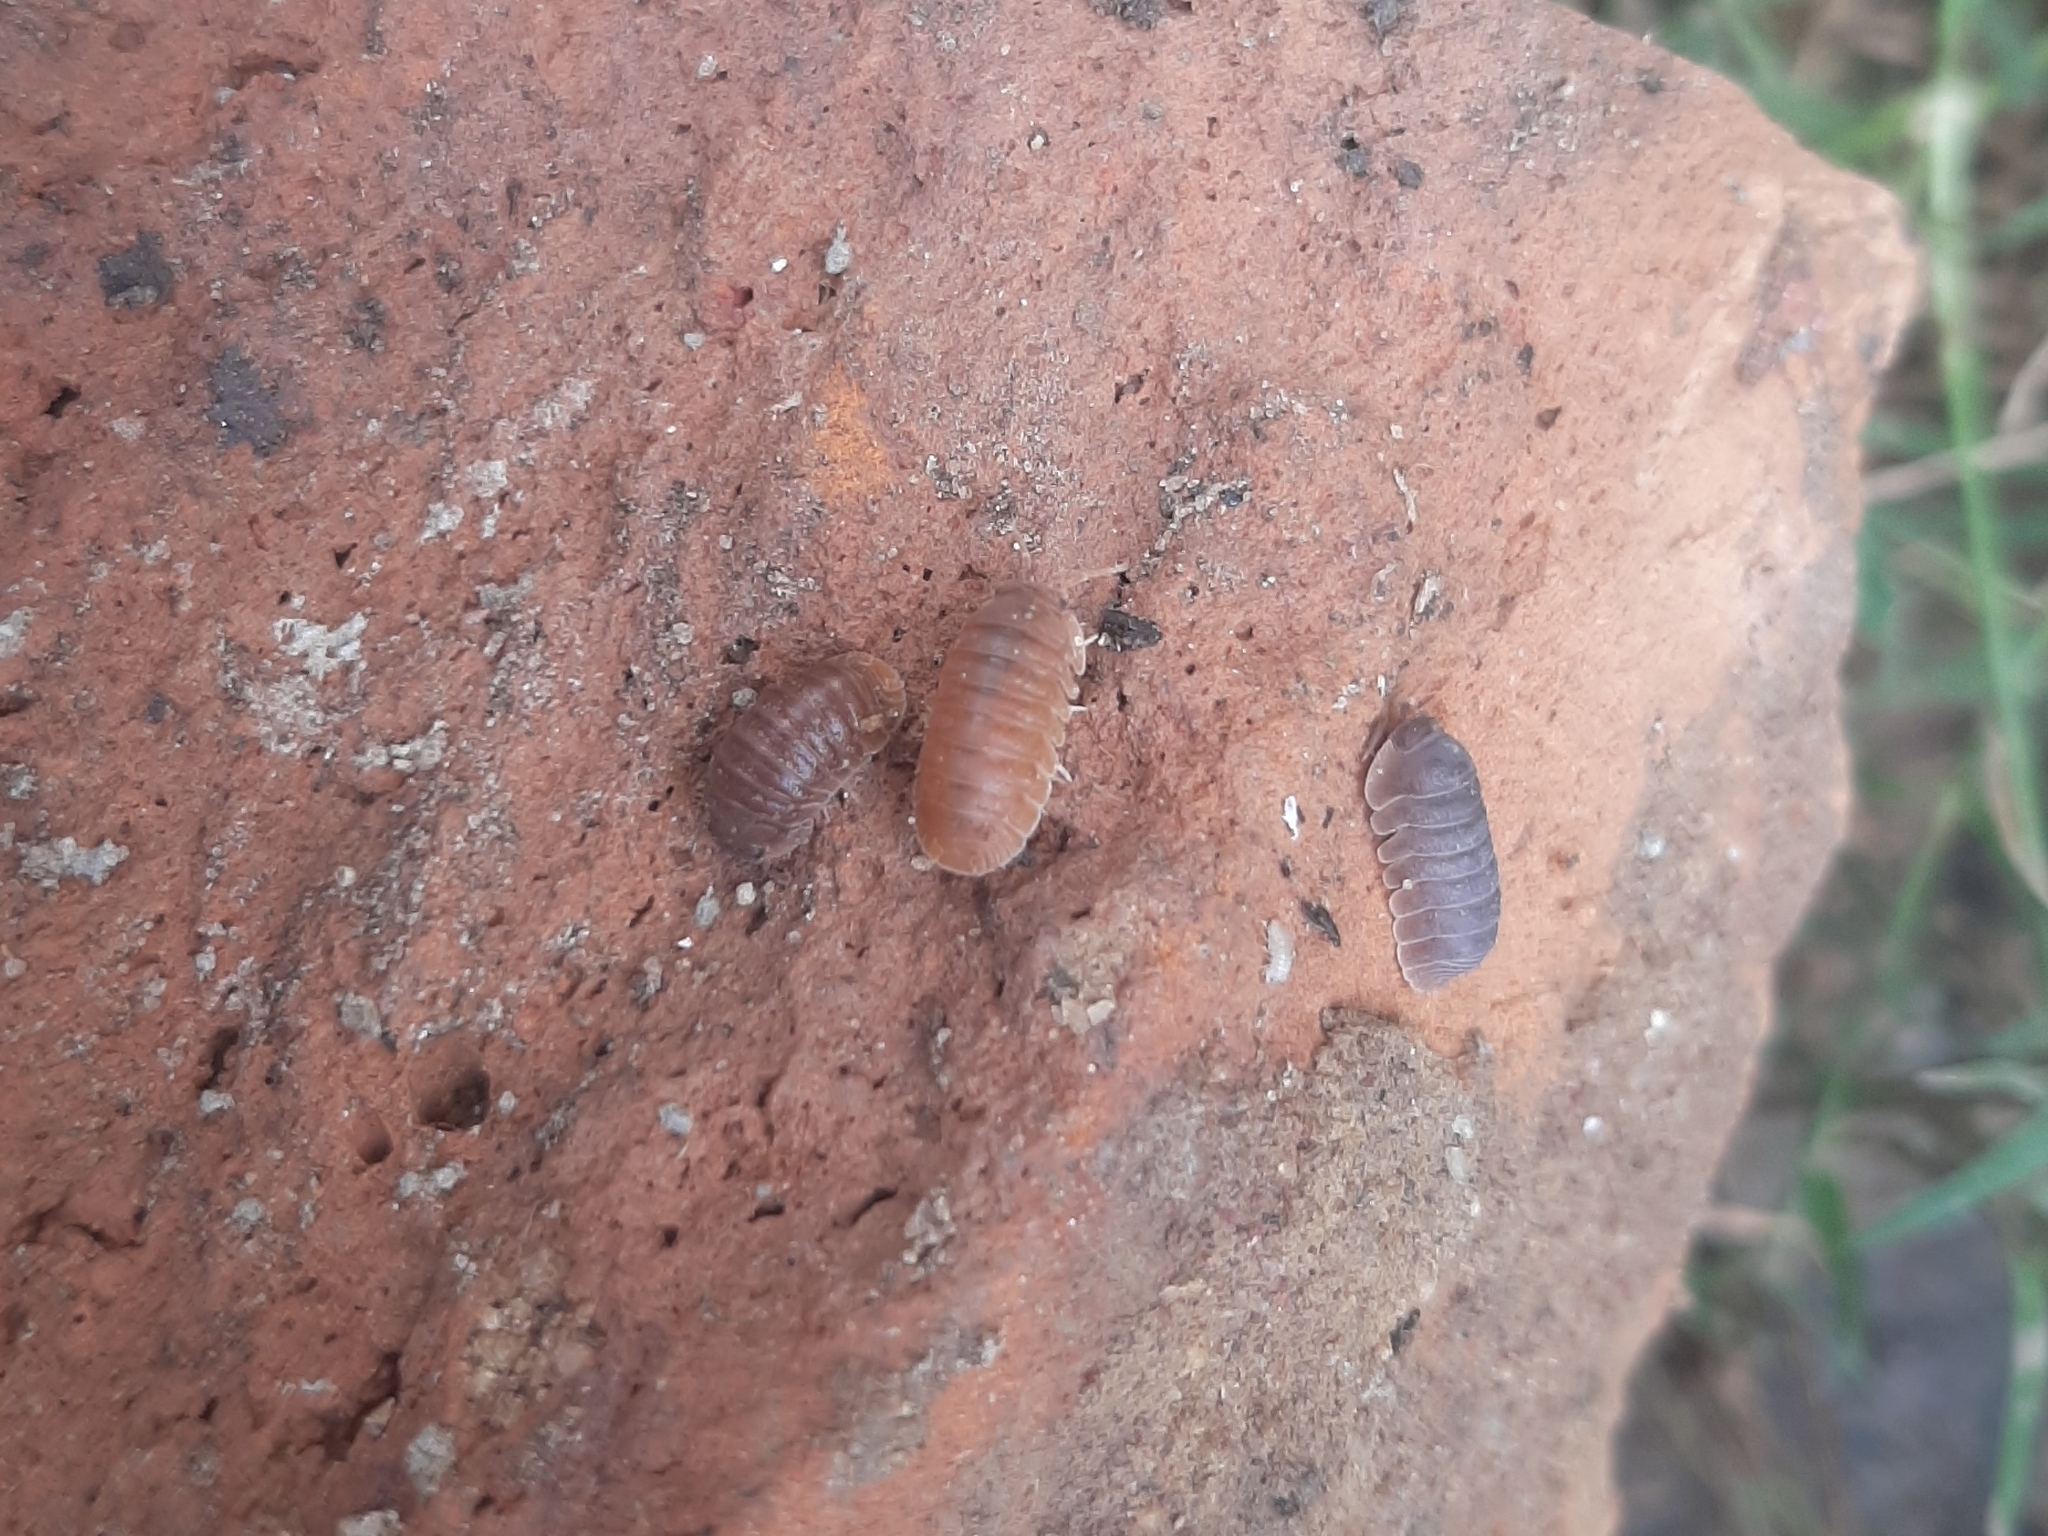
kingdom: Animalia
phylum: Arthropoda
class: Malacostraca
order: Isopoda
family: Armadillidae
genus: Cubaris
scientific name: Cubaris murina
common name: Pillbug
